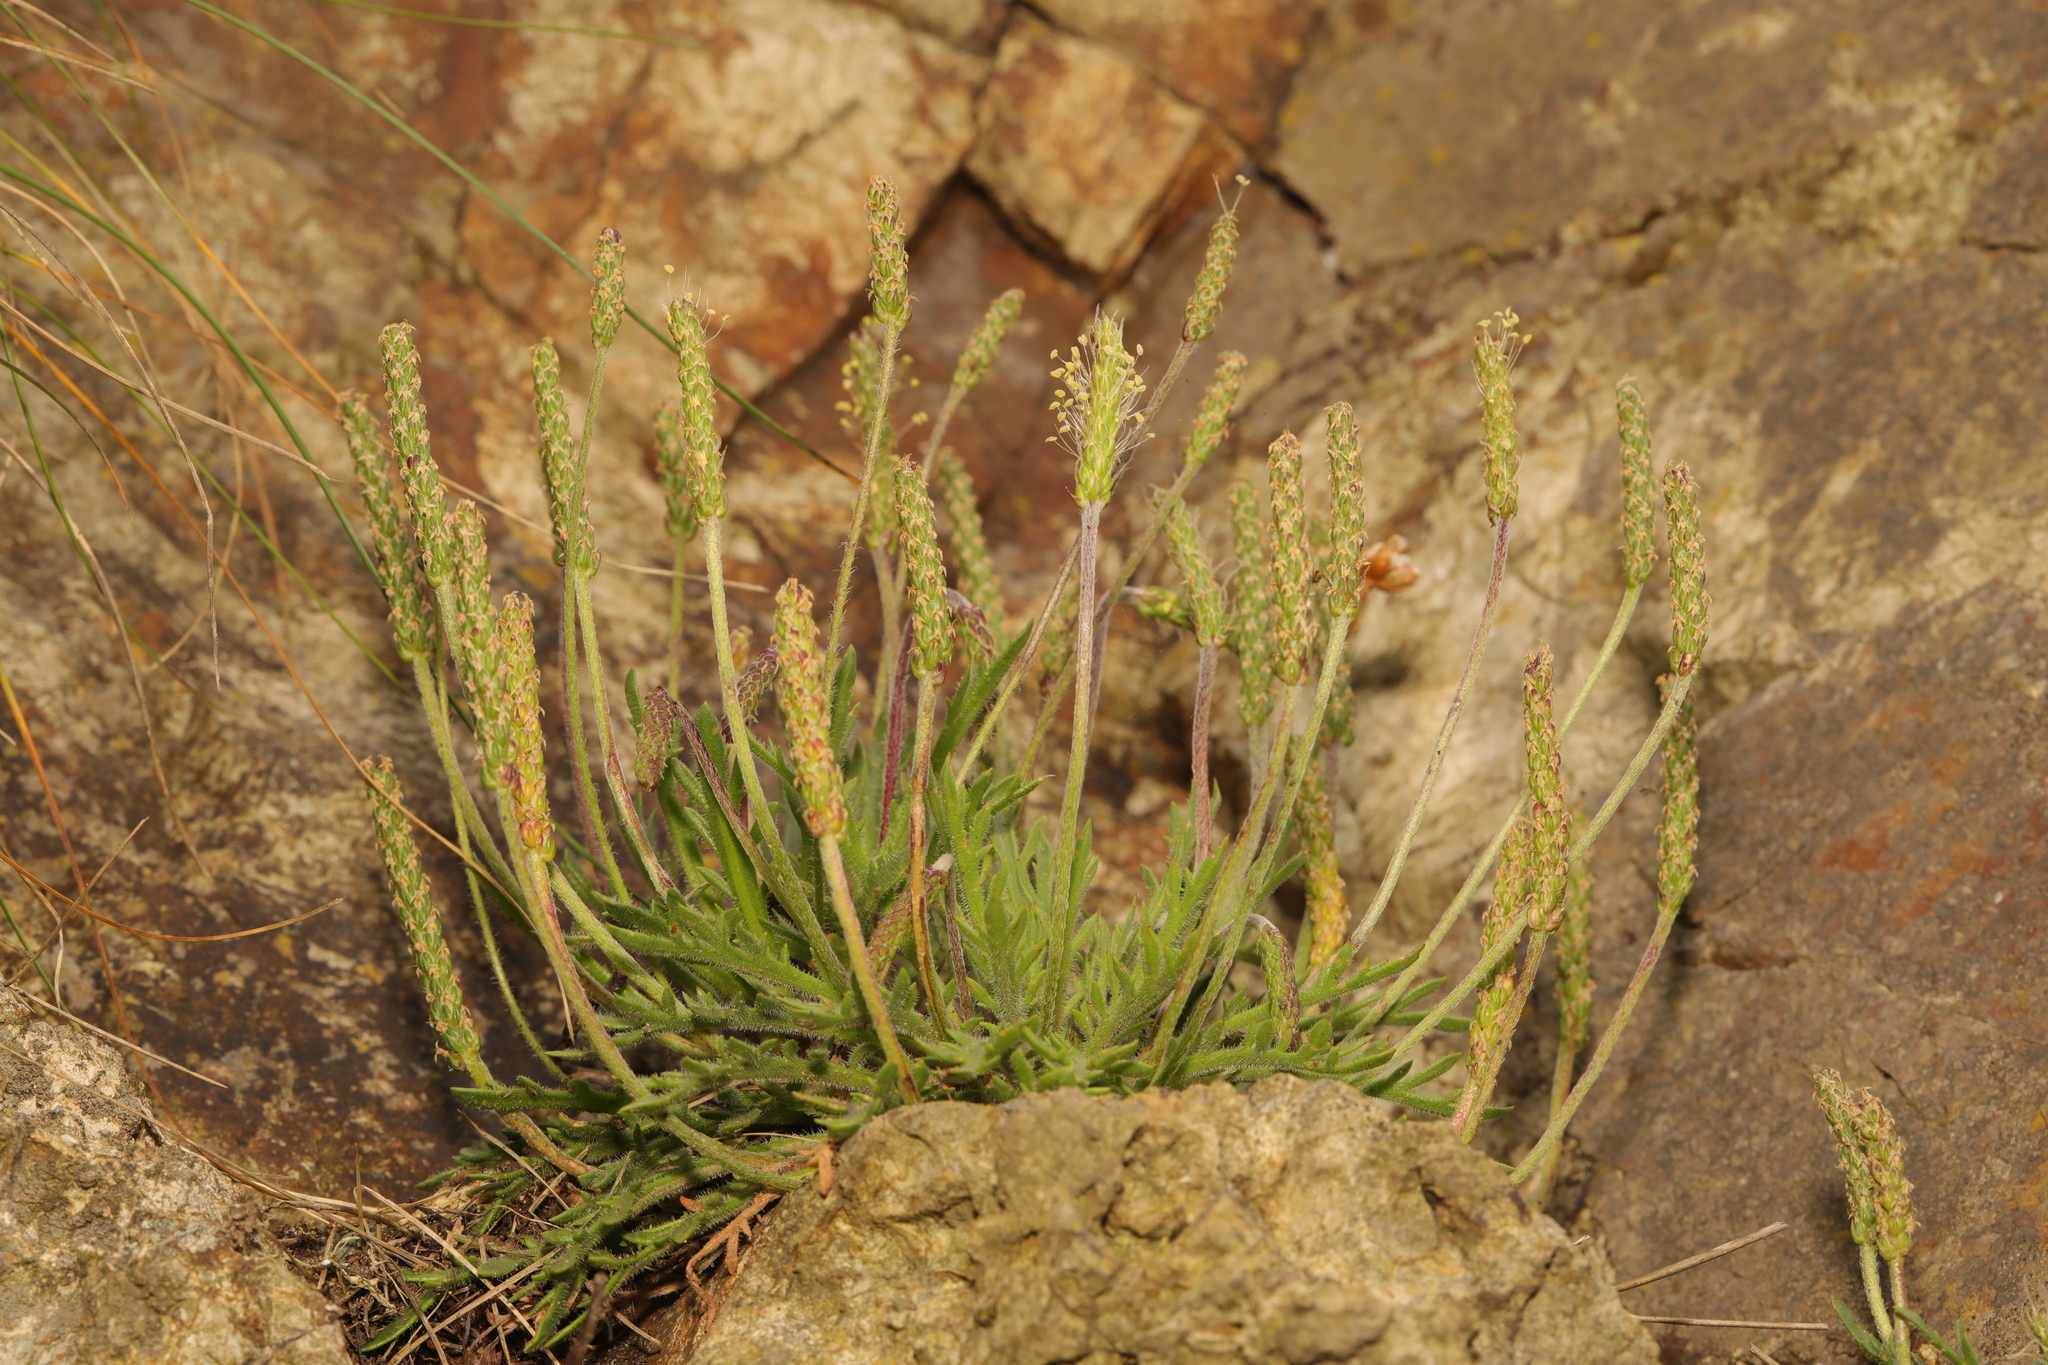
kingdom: Plantae
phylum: Tracheophyta
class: Magnoliopsida
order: Lamiales
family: Plantaginaceae
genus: Plantago
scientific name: Plantago coronopus
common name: Buck's-horn plantain
